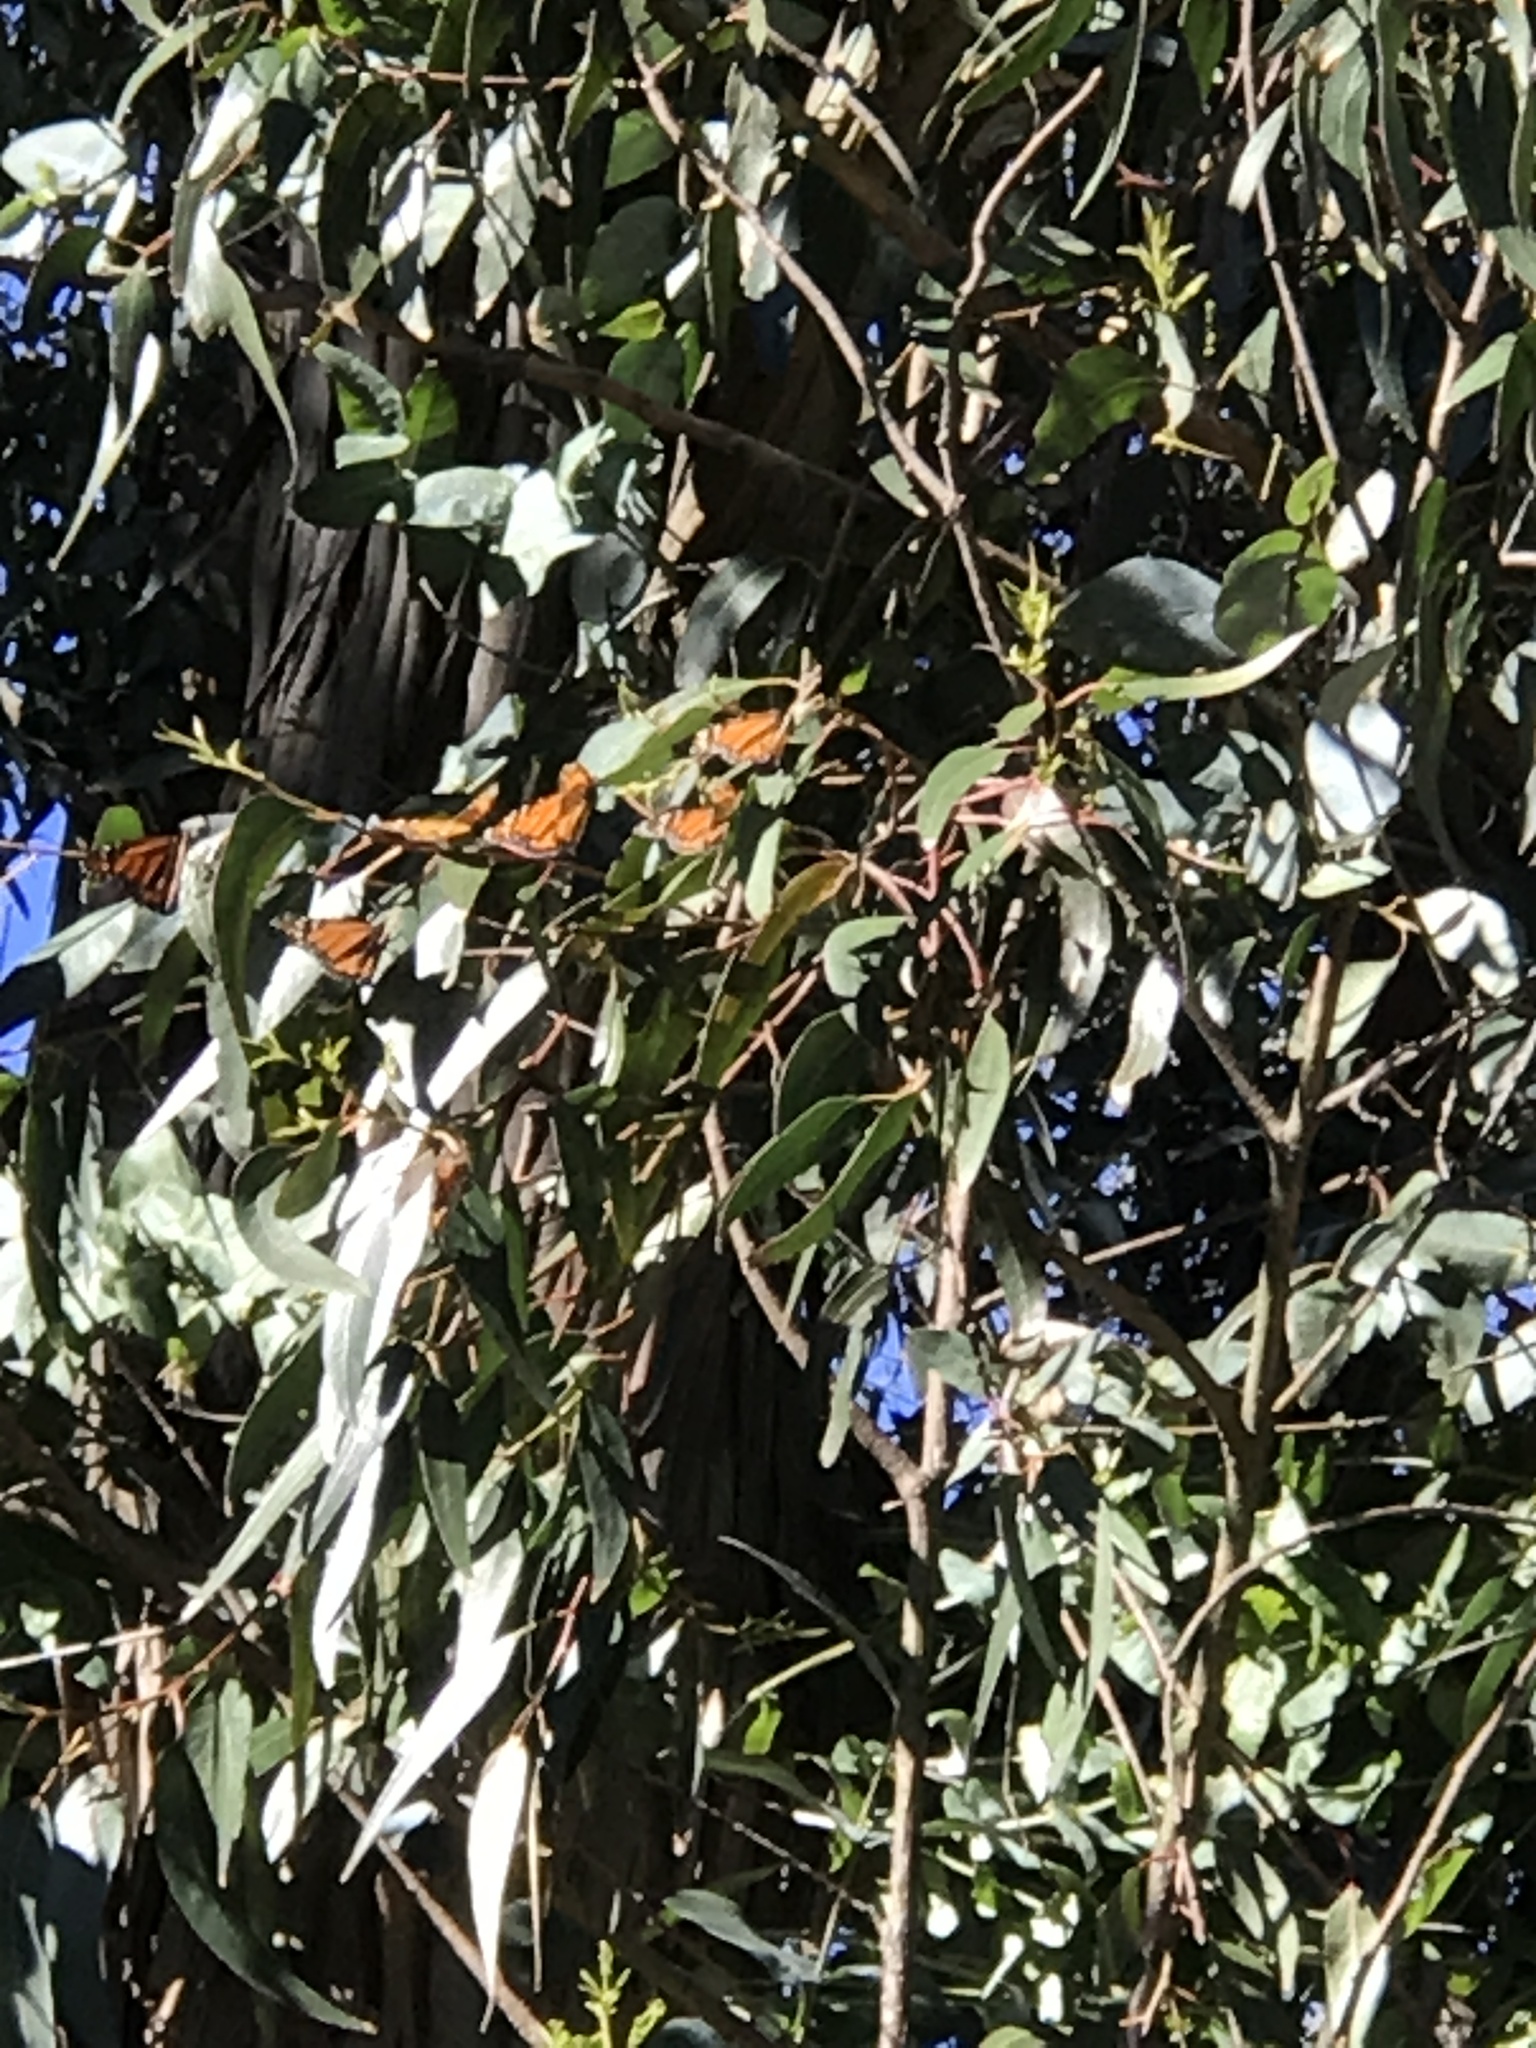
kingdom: Animalia
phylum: Arthropoda
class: Insecta
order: Lepidoptera
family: Nymphalidae
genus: Danaus
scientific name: Danaus plexippus
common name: Monarch
